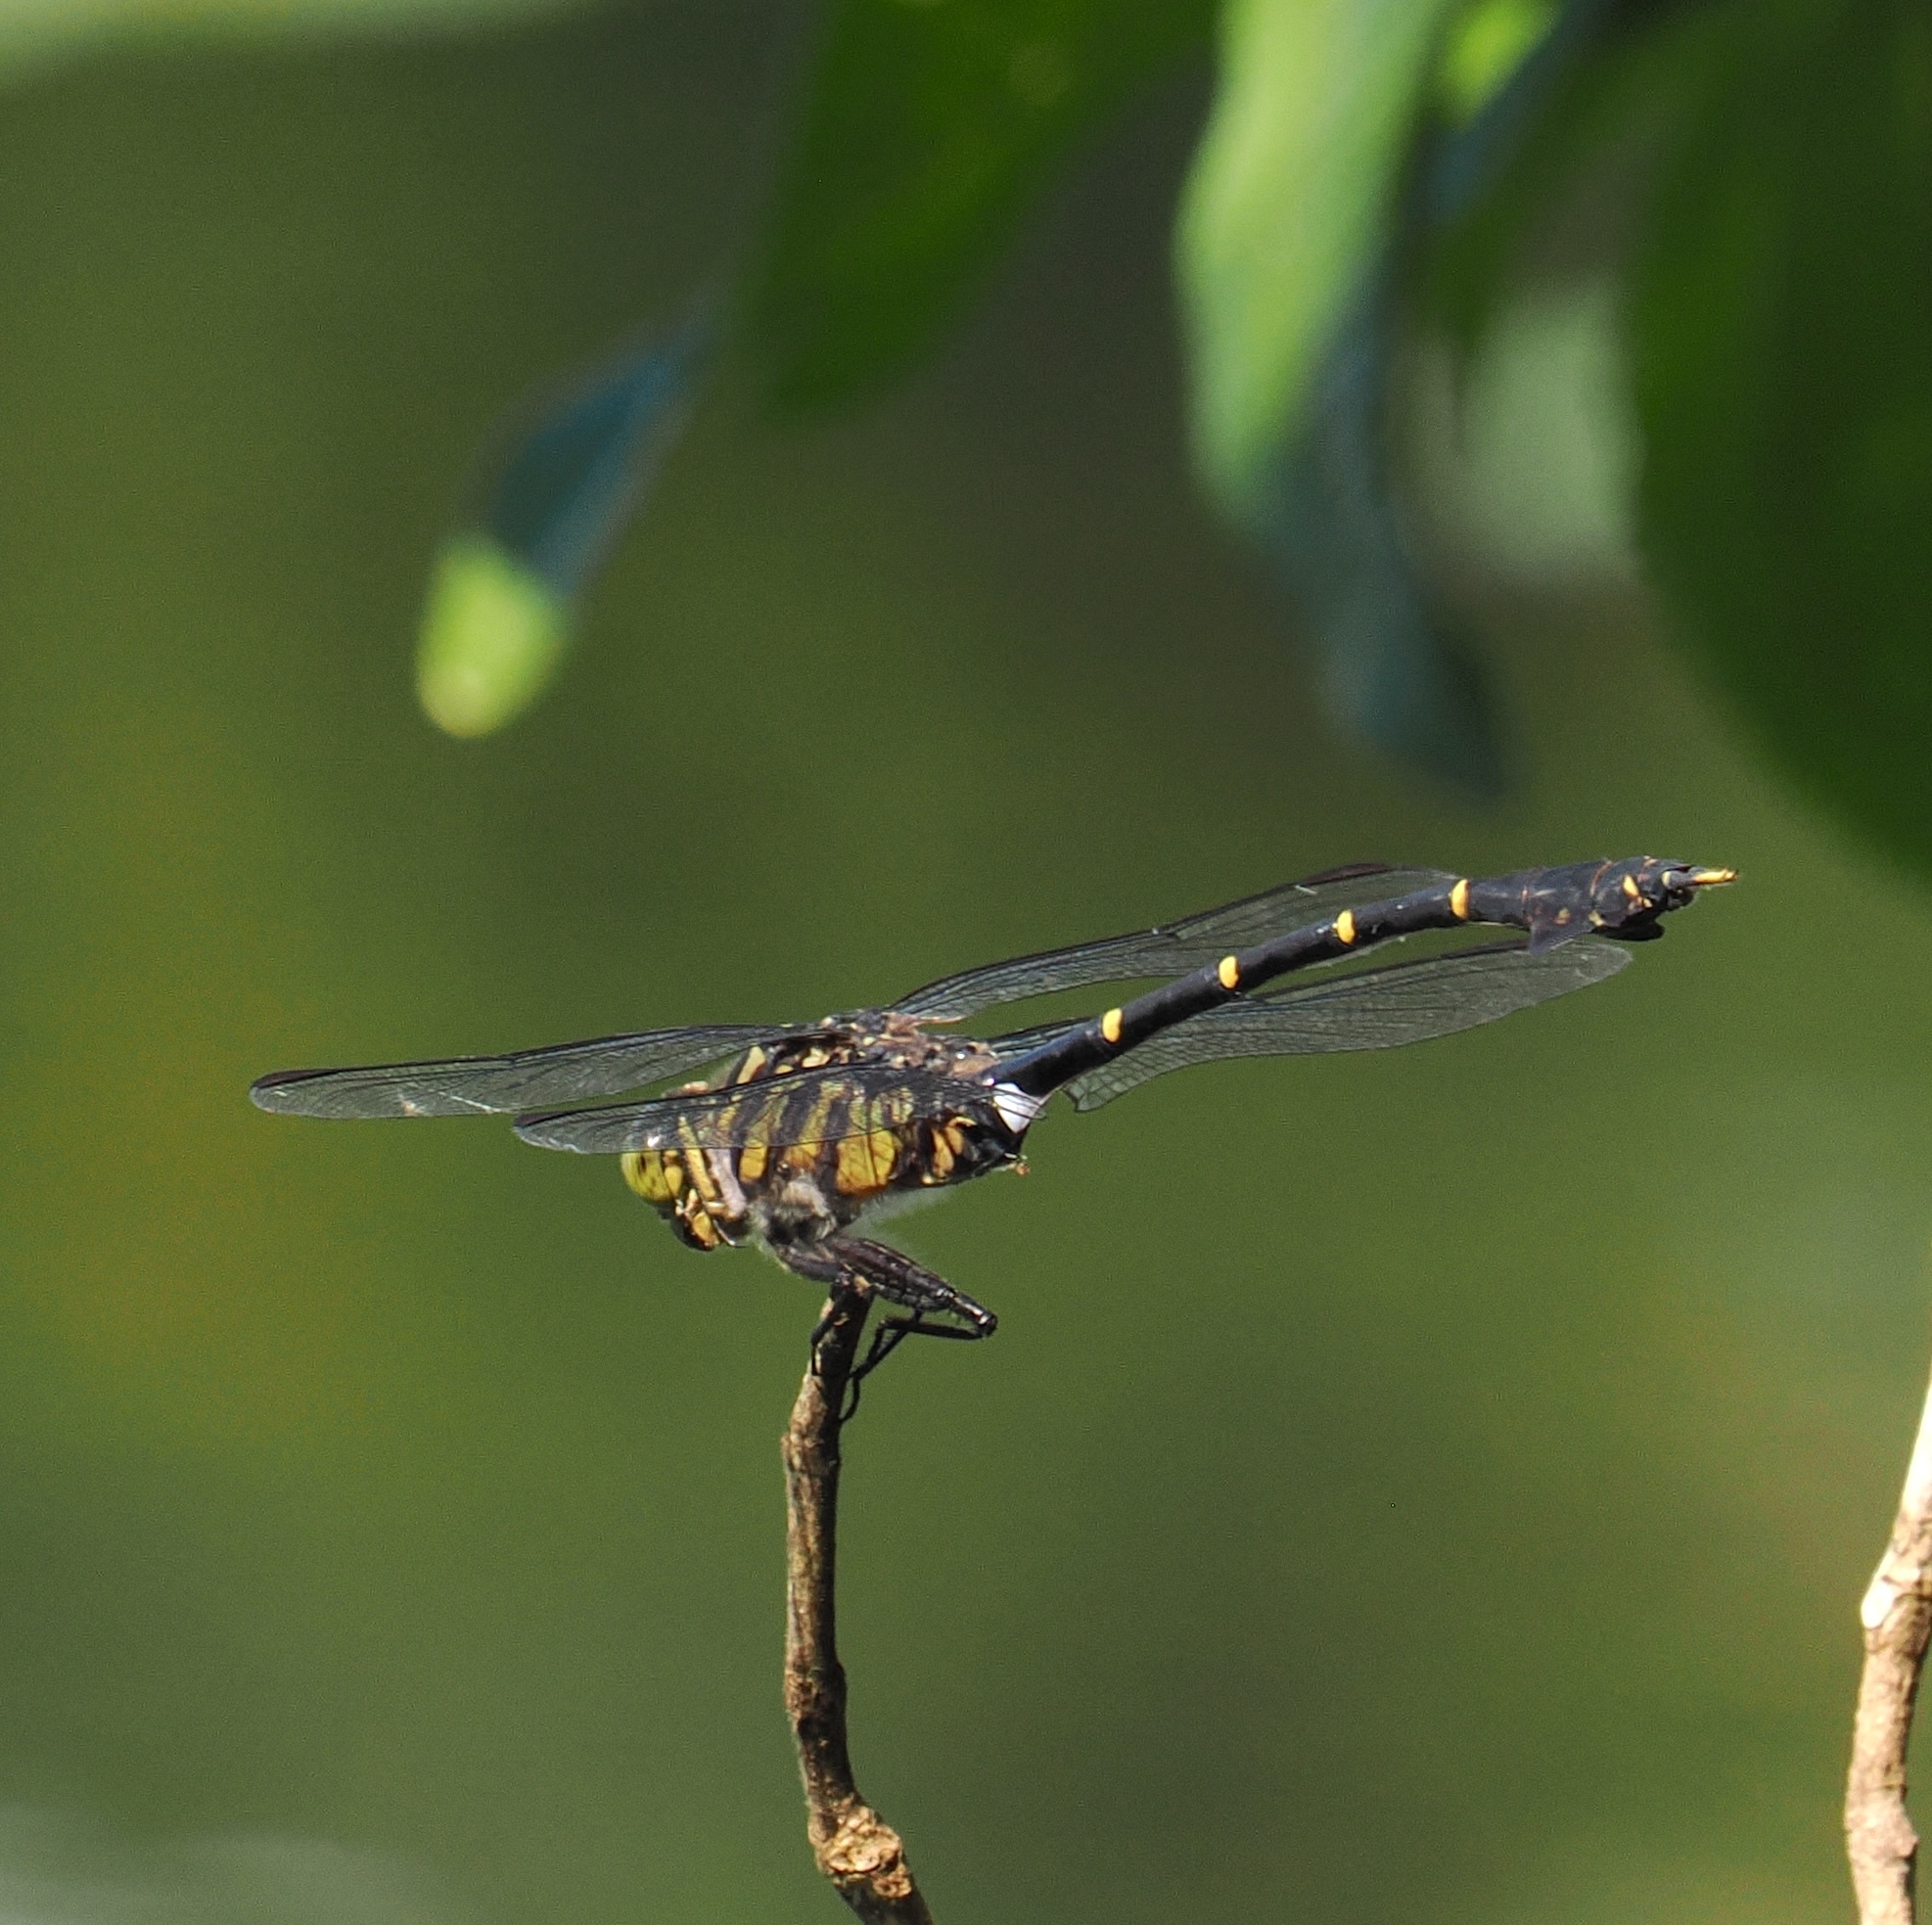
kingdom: Animalia
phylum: Arthropoda
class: Insecta
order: Odonata
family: Gomphidae
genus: Cacoides
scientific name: Cacoides latro
